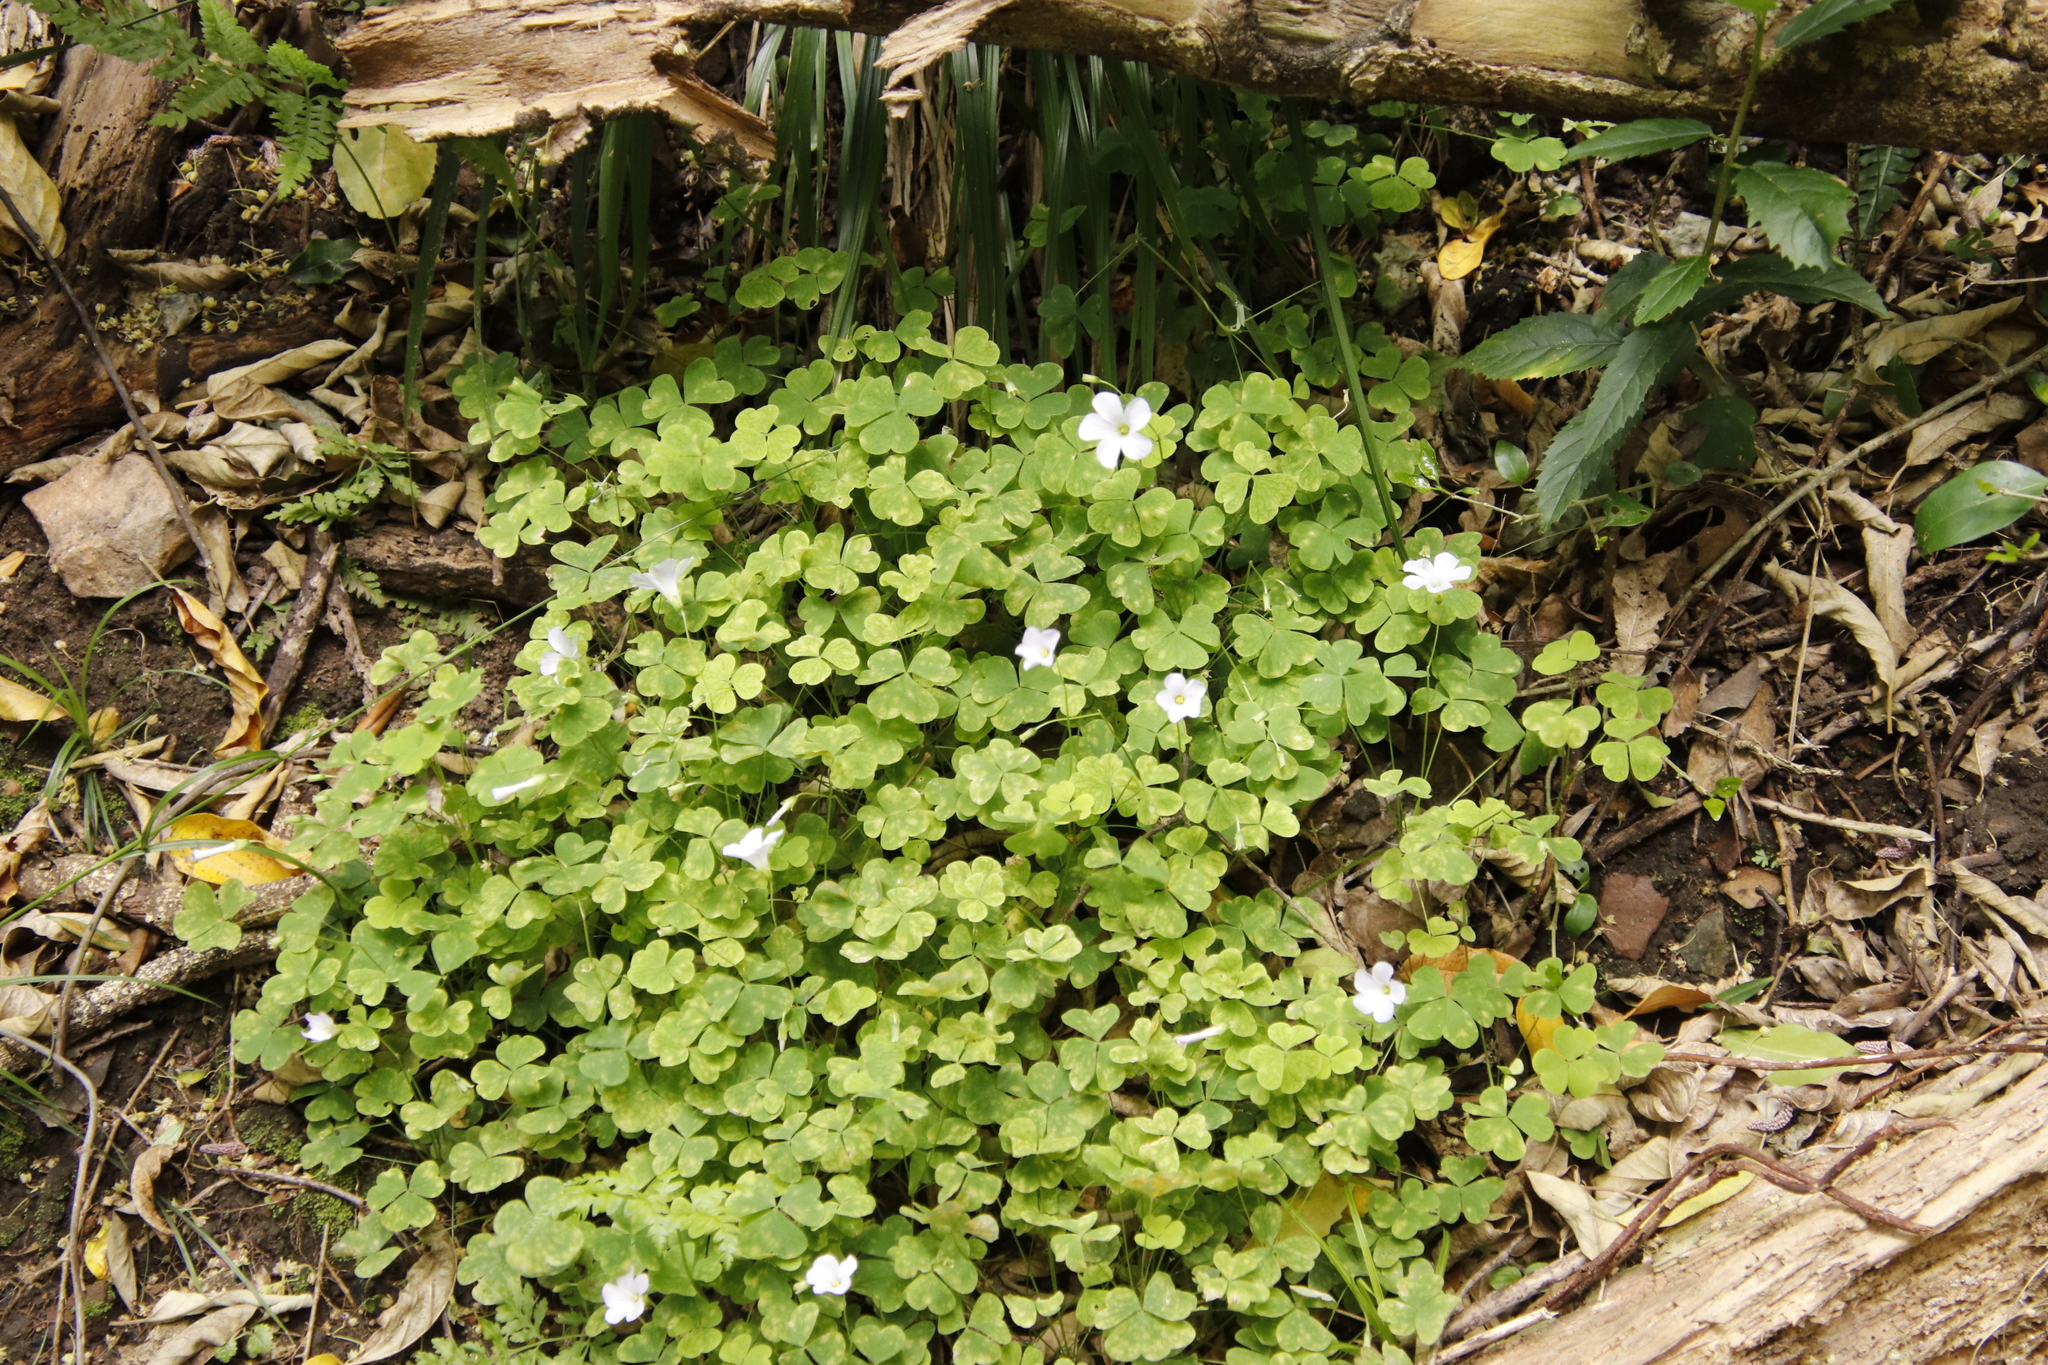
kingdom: Plantae
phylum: Tracheophyta
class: Magnoliopsida
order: Oxalidales
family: Oxalidaceae
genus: Oxalis
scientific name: Oxalis incarnata
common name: Pale pink-sorrel
